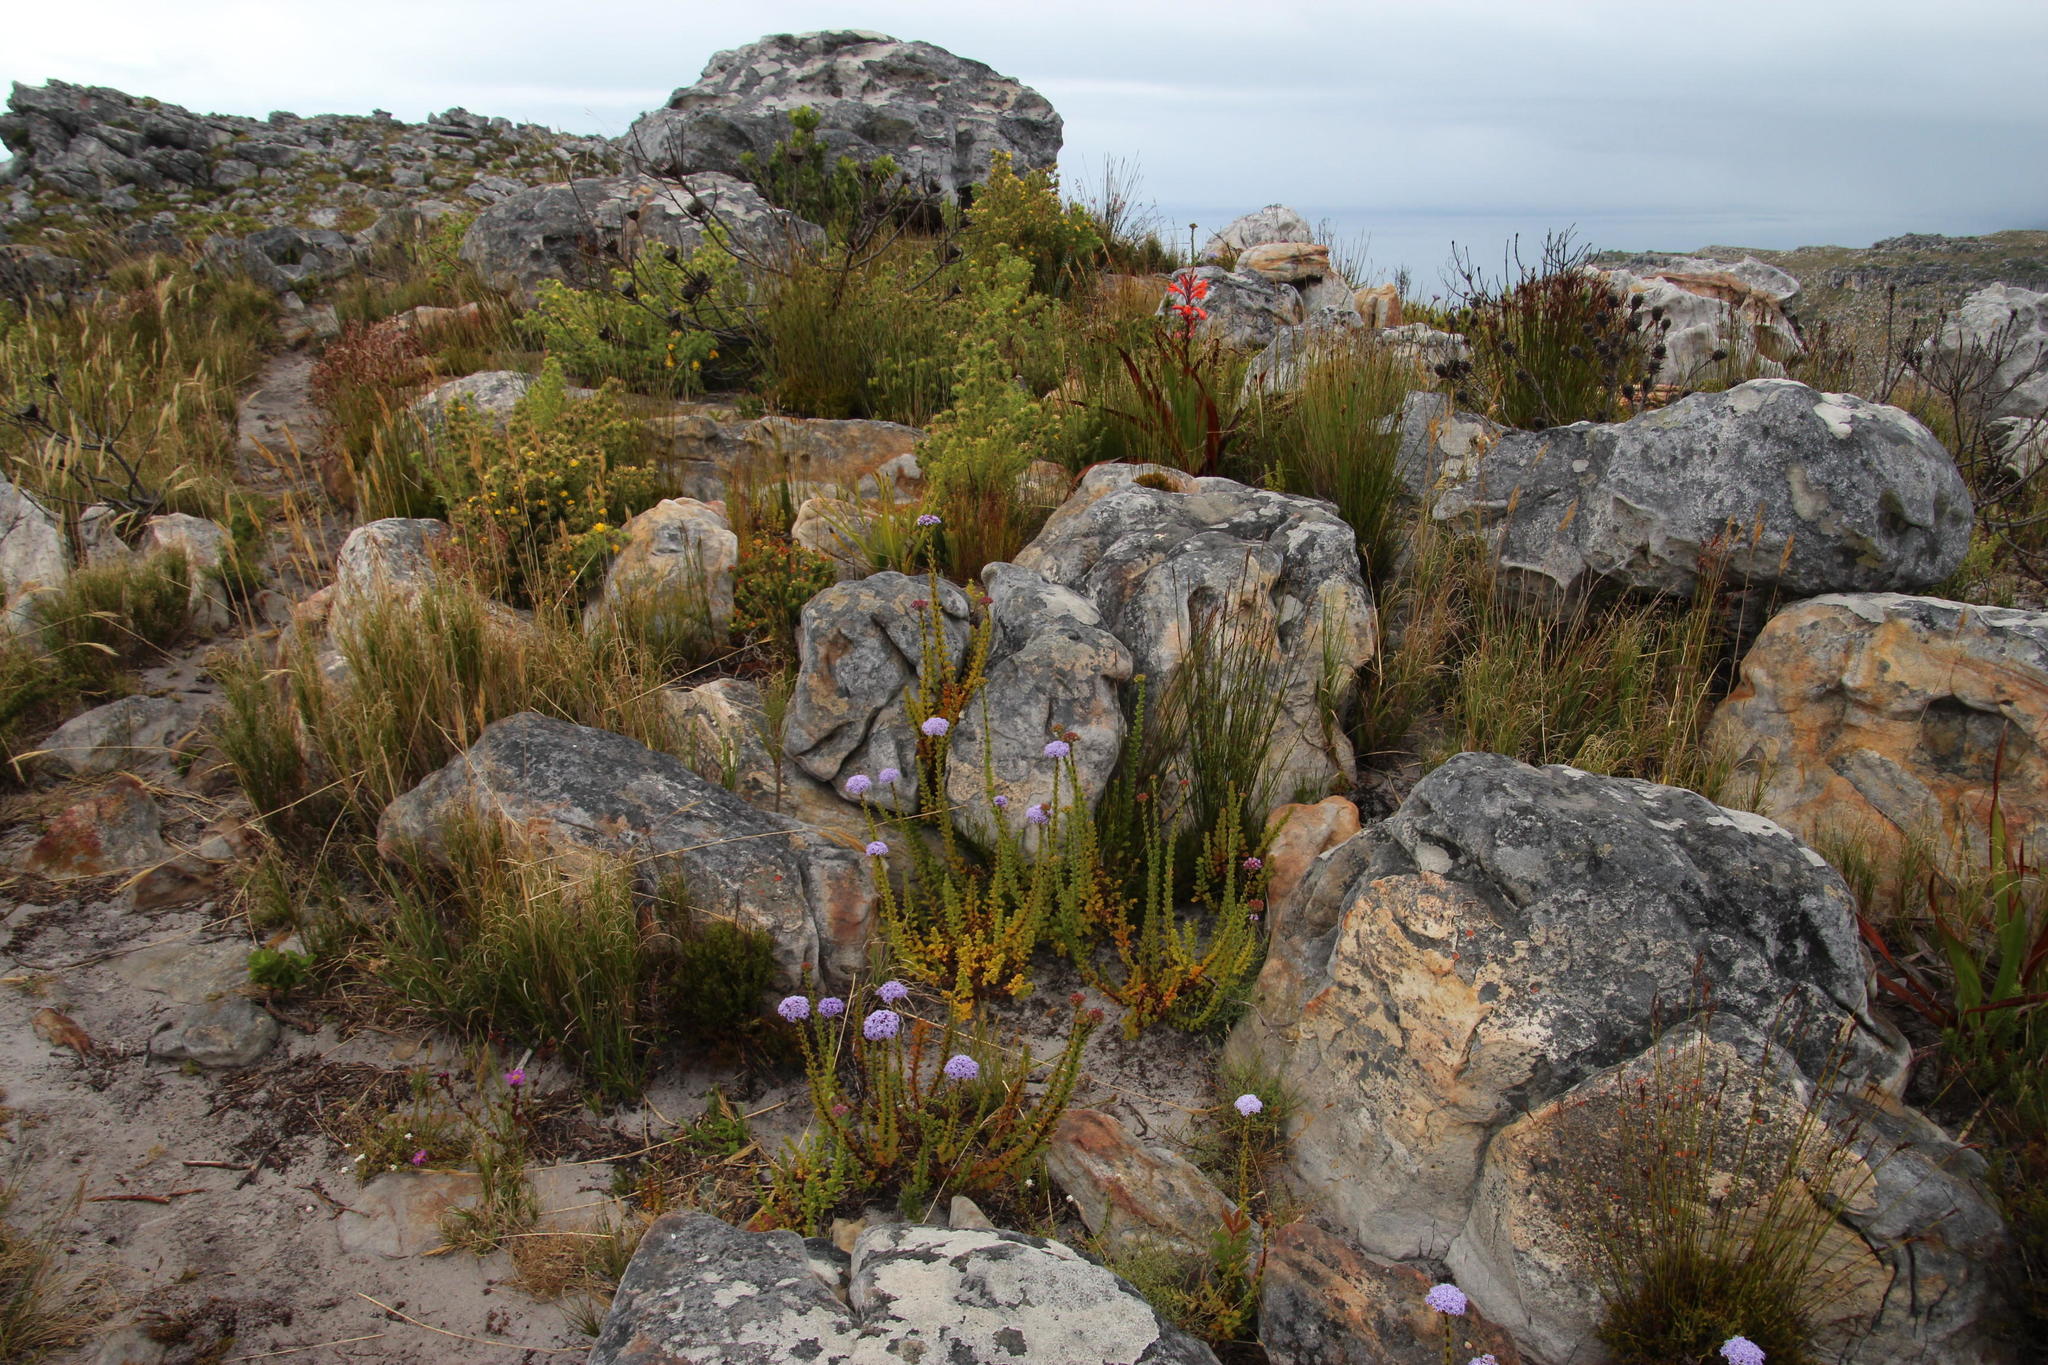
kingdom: Plantae
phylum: Tracheophyta
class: Magnoliopsida
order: Lamiales
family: Scrophulariaceae
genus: Pseudoselago
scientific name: Pseudoselago serrata
